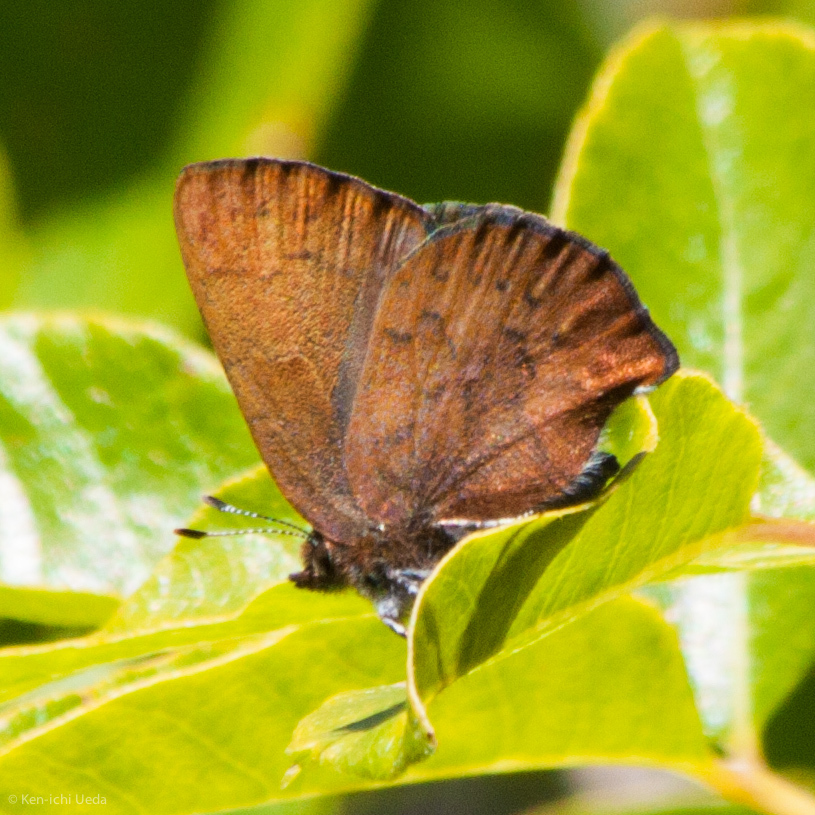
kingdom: Animalia
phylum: Arthropoda
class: Insecta
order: Lepidoptera
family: Lycaenidae
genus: Incisalia
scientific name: Incisalia irioides
